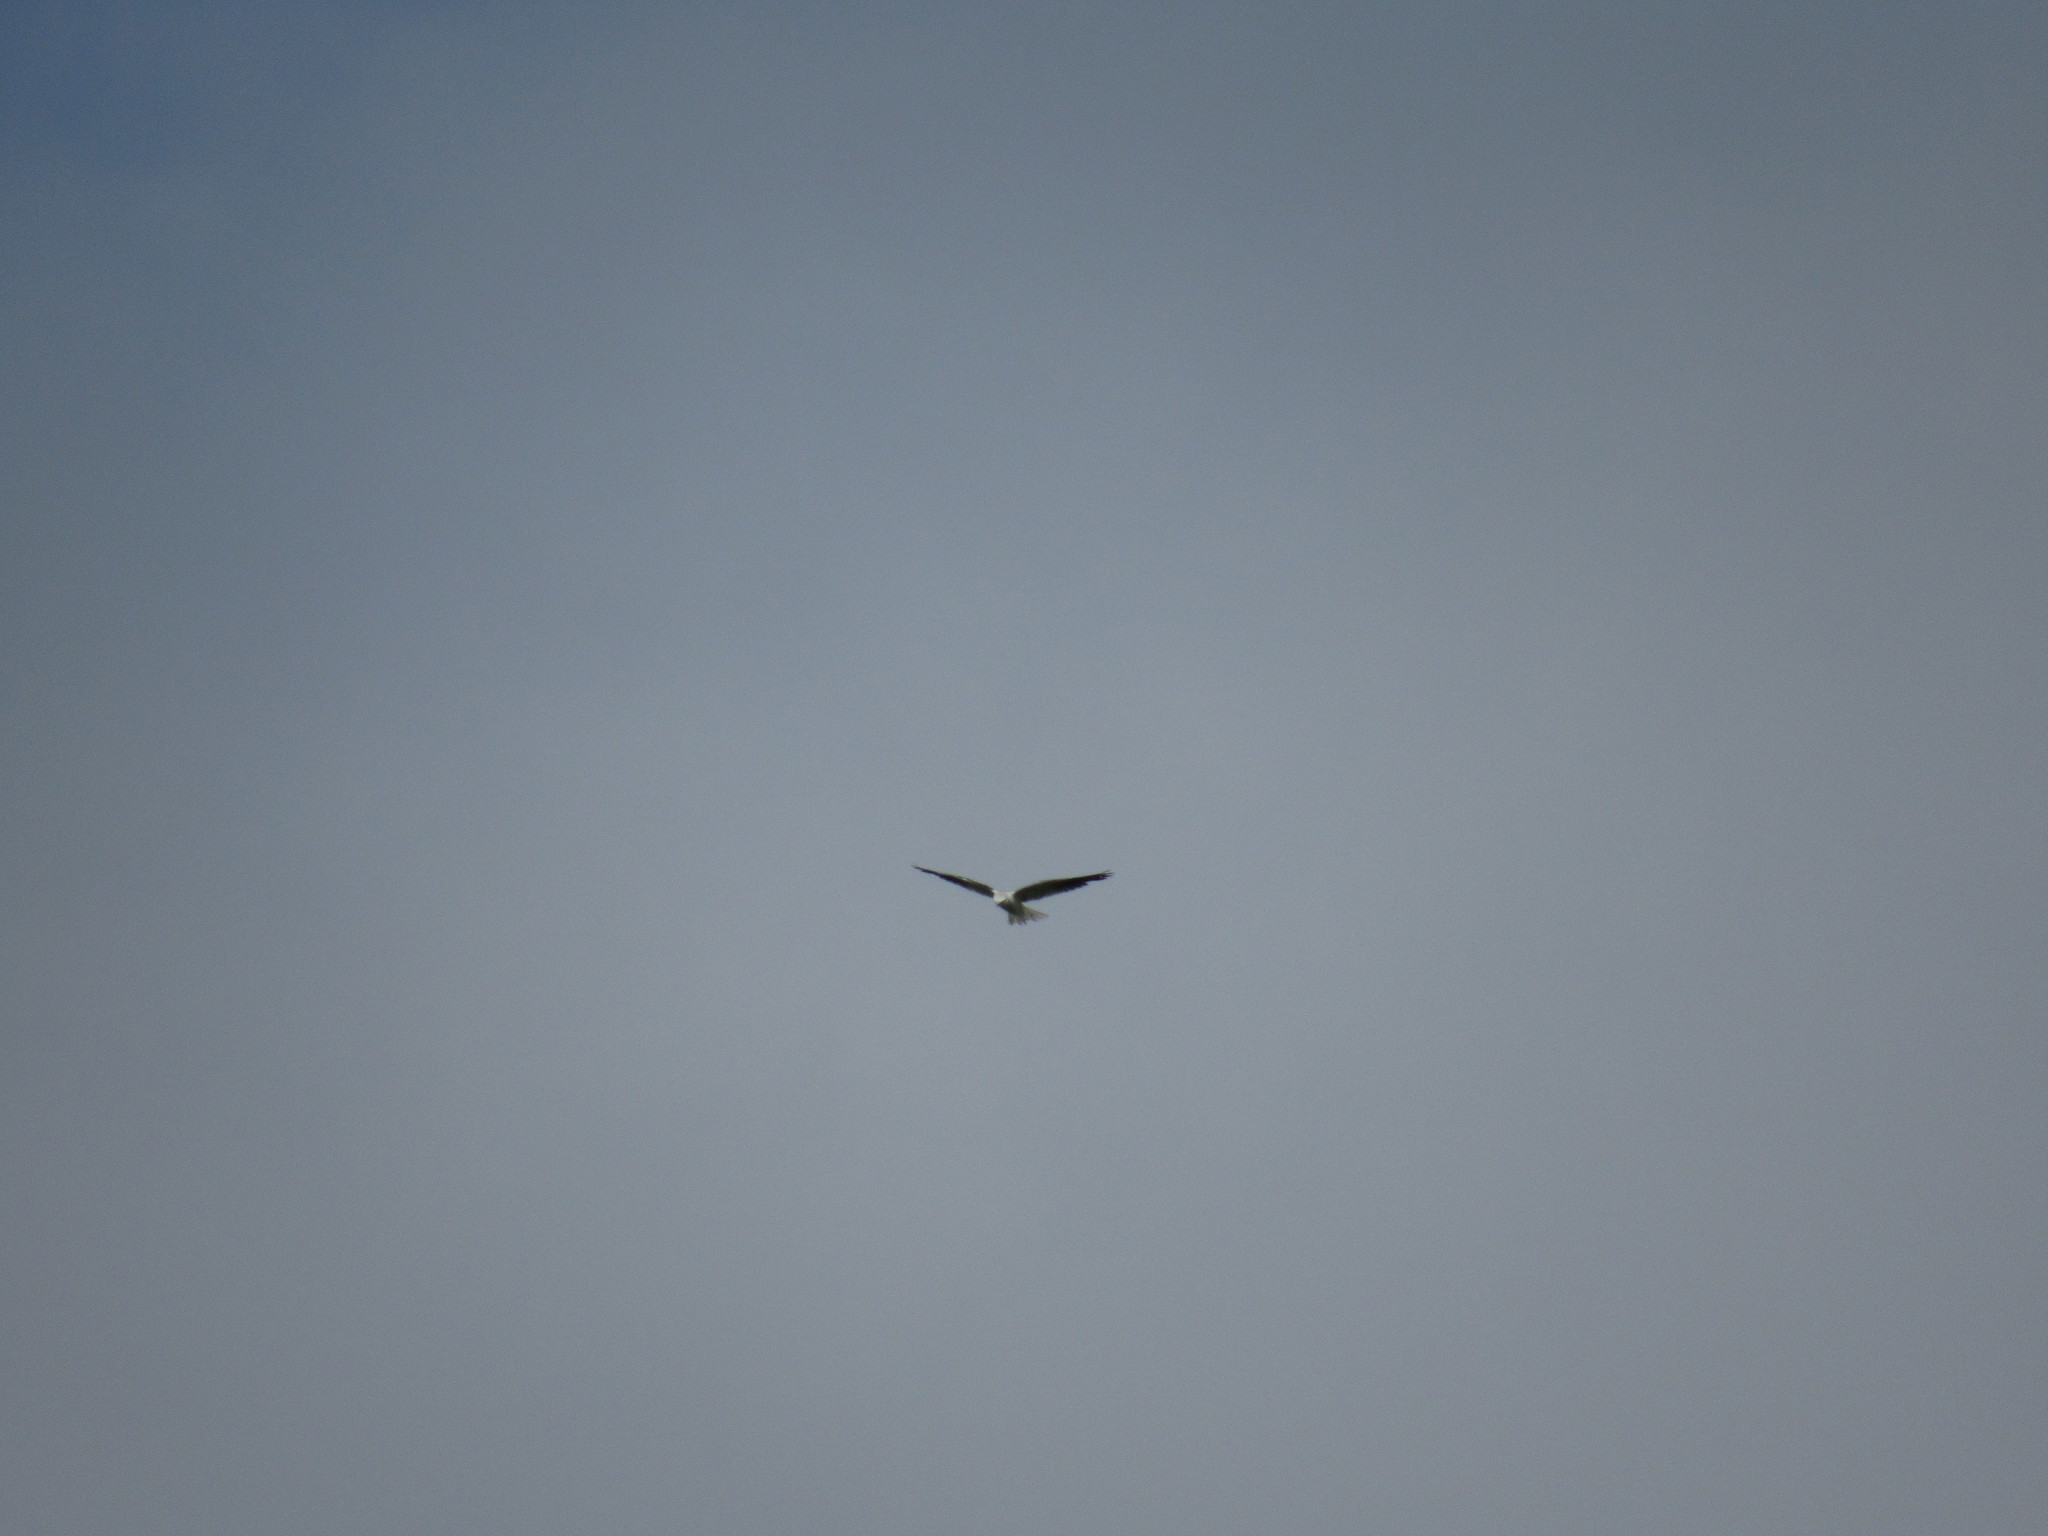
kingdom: Animalia
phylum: Chordata
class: Aves
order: Accipitriformes
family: Accipitridae
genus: Elanus
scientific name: Elanus leucurus
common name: White-tailed kite
